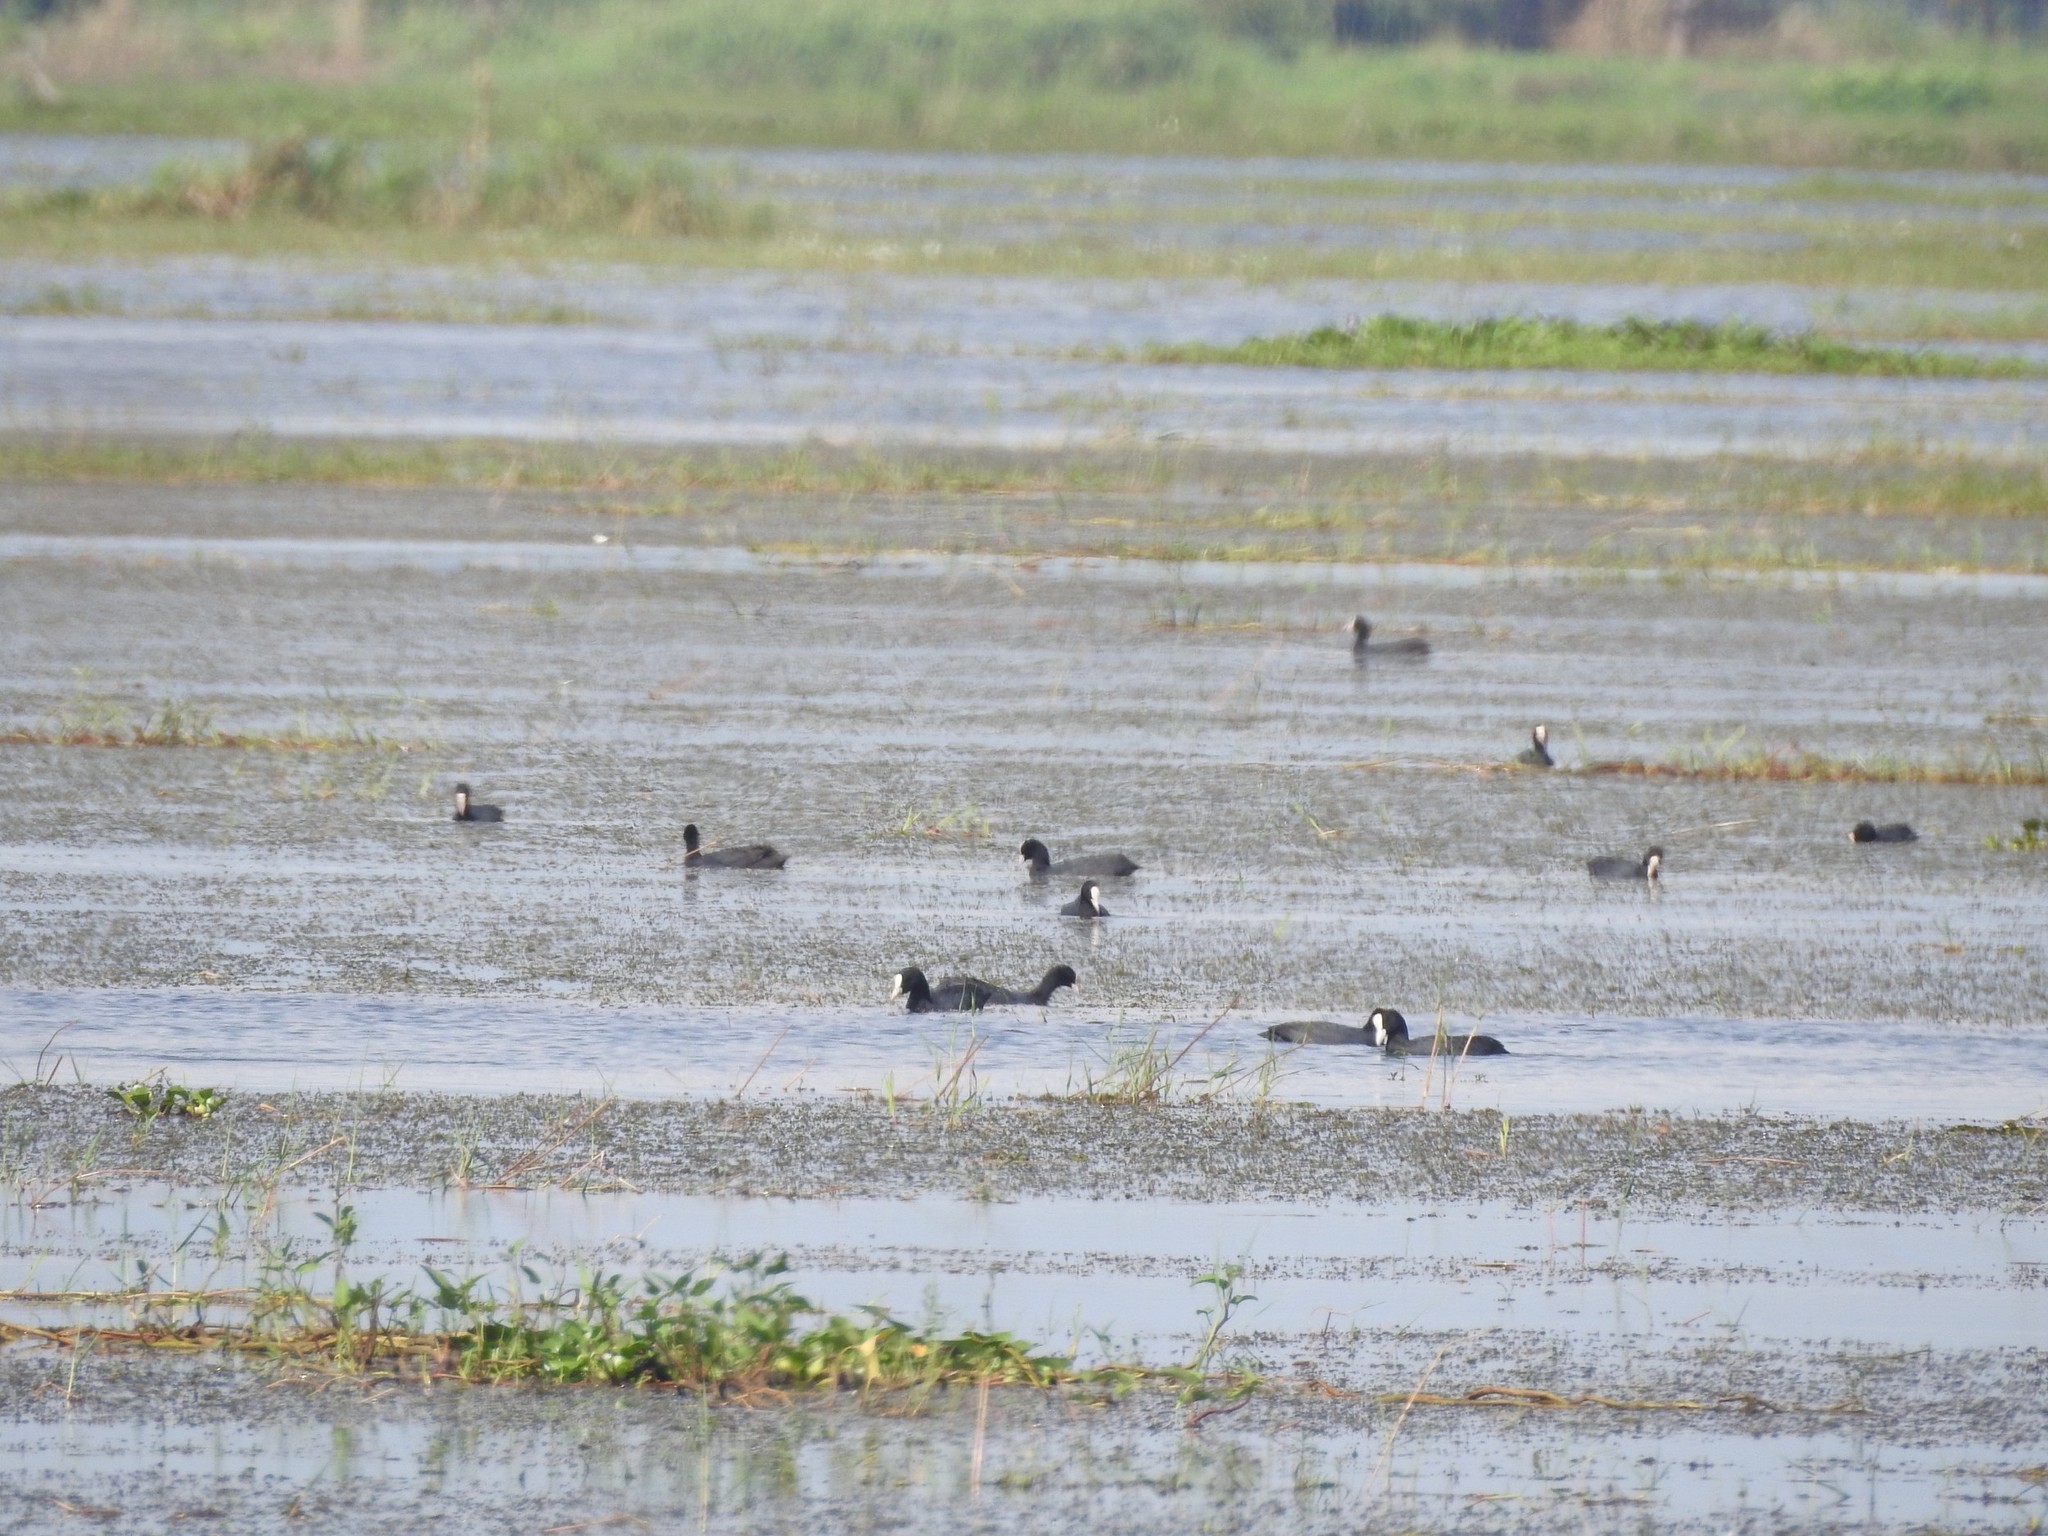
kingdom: Animalia
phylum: Chordata
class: Aves
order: Gruiformes
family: Rallidae
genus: Fulica
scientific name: Fulica atra
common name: Eurasian coot
